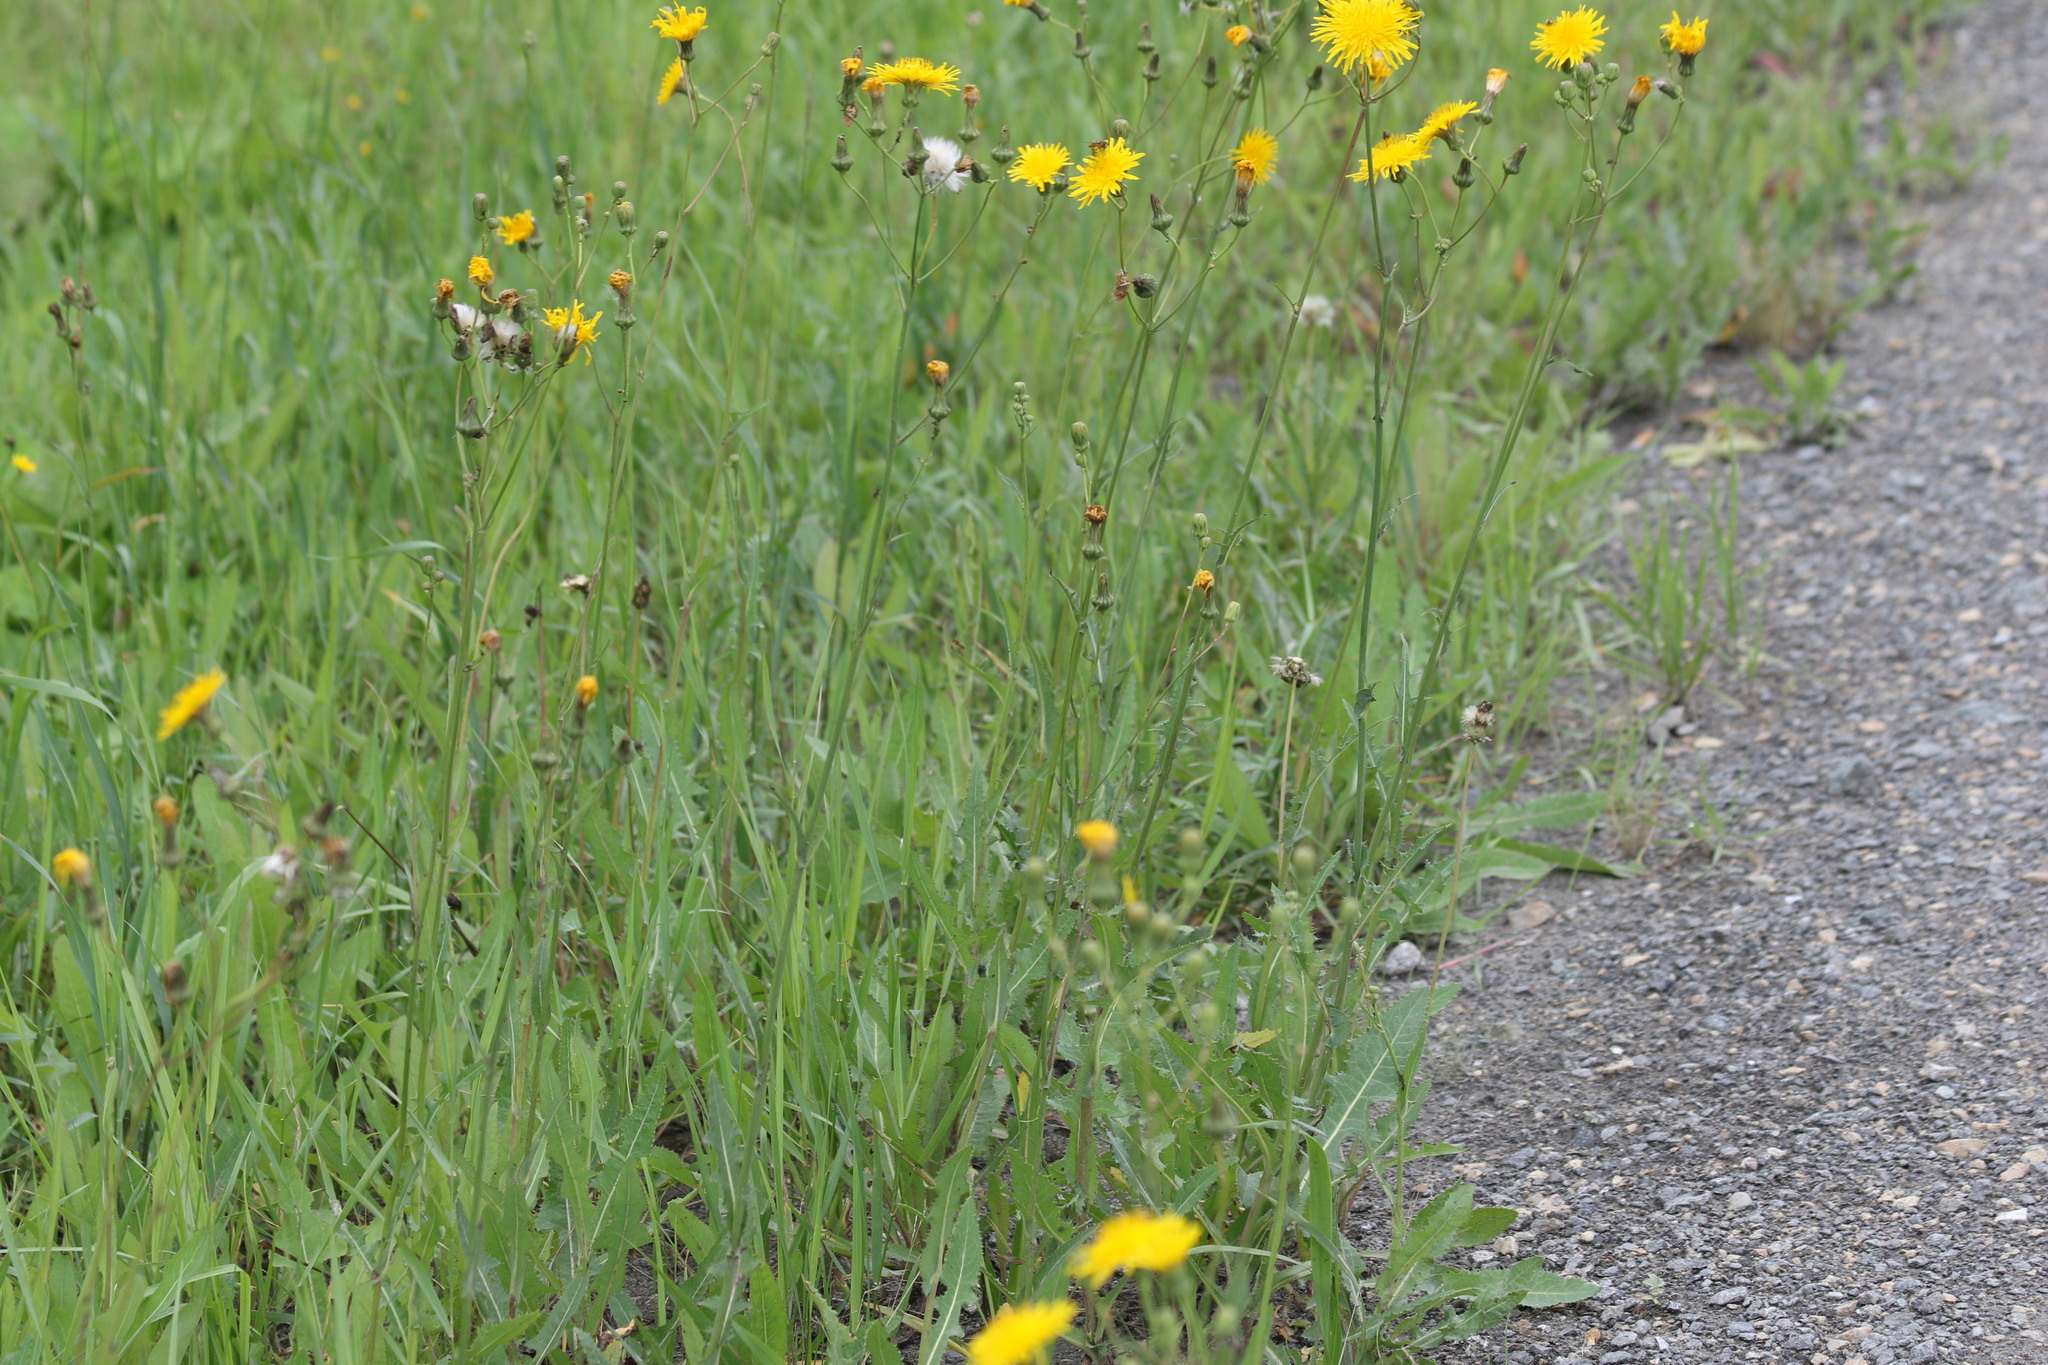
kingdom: Plantae
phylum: Tracheophyta
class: Magnoliopsida
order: Asterales
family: Asteraceae
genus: Sonchus
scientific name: Sonchus arvensis
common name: Perennial sow-thistle
